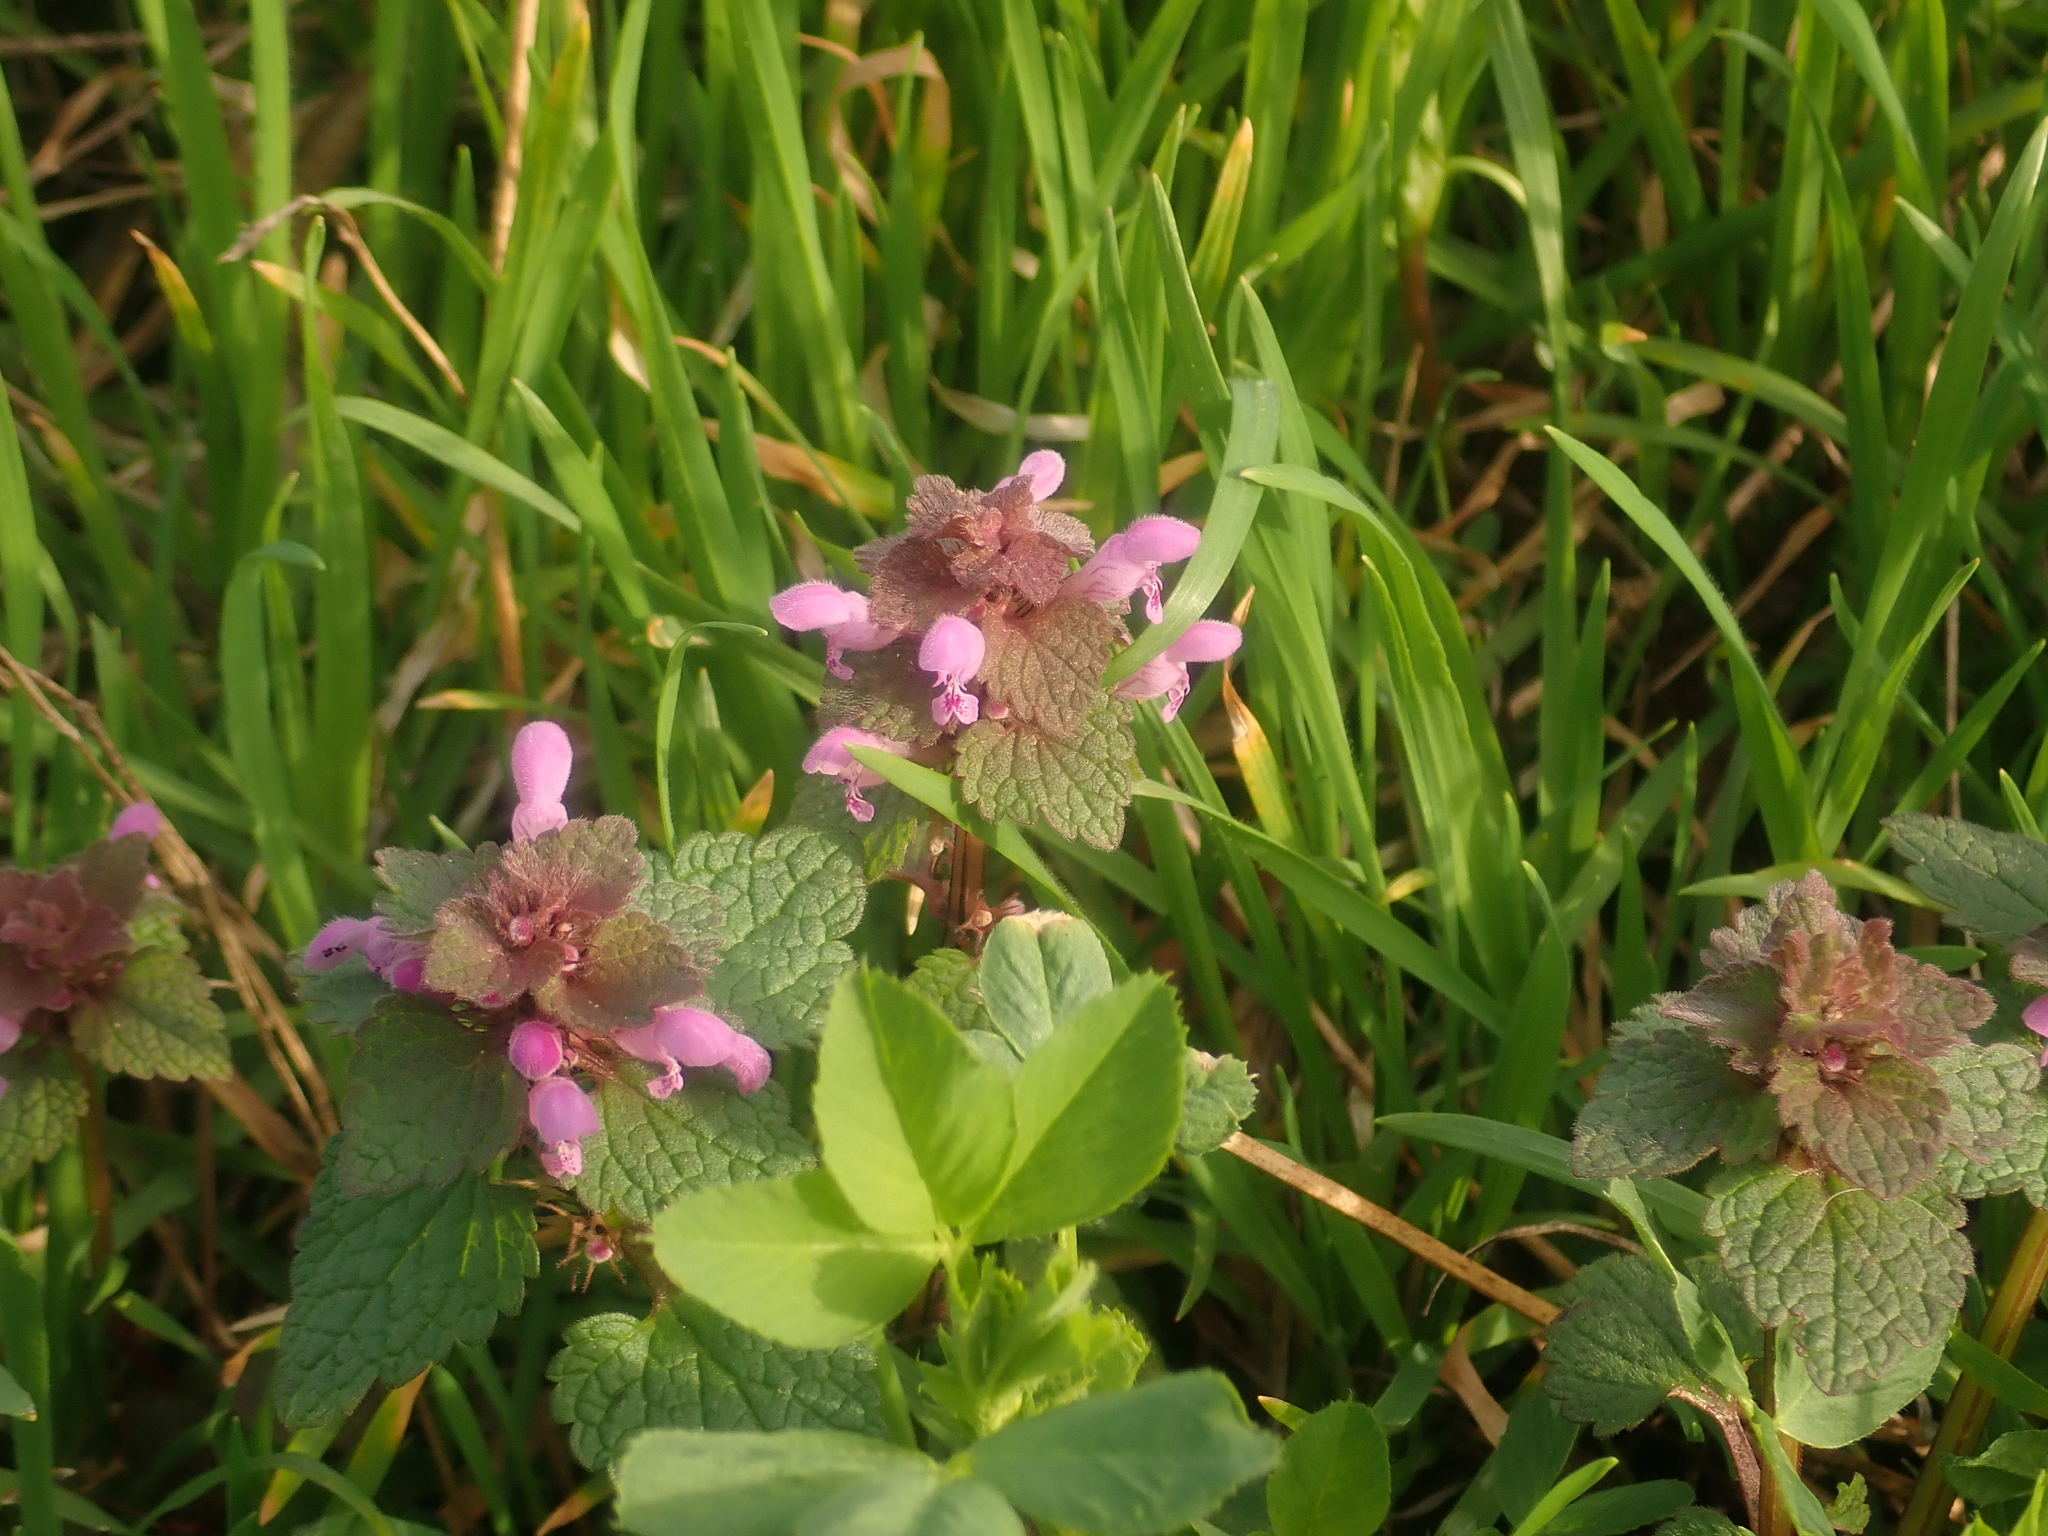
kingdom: Plantae
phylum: Tracheophyta
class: Magnoliopsida
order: Lamiales
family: Lamiaceae
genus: Lamium
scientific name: Lamium purpureum
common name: Red dead-nettle
